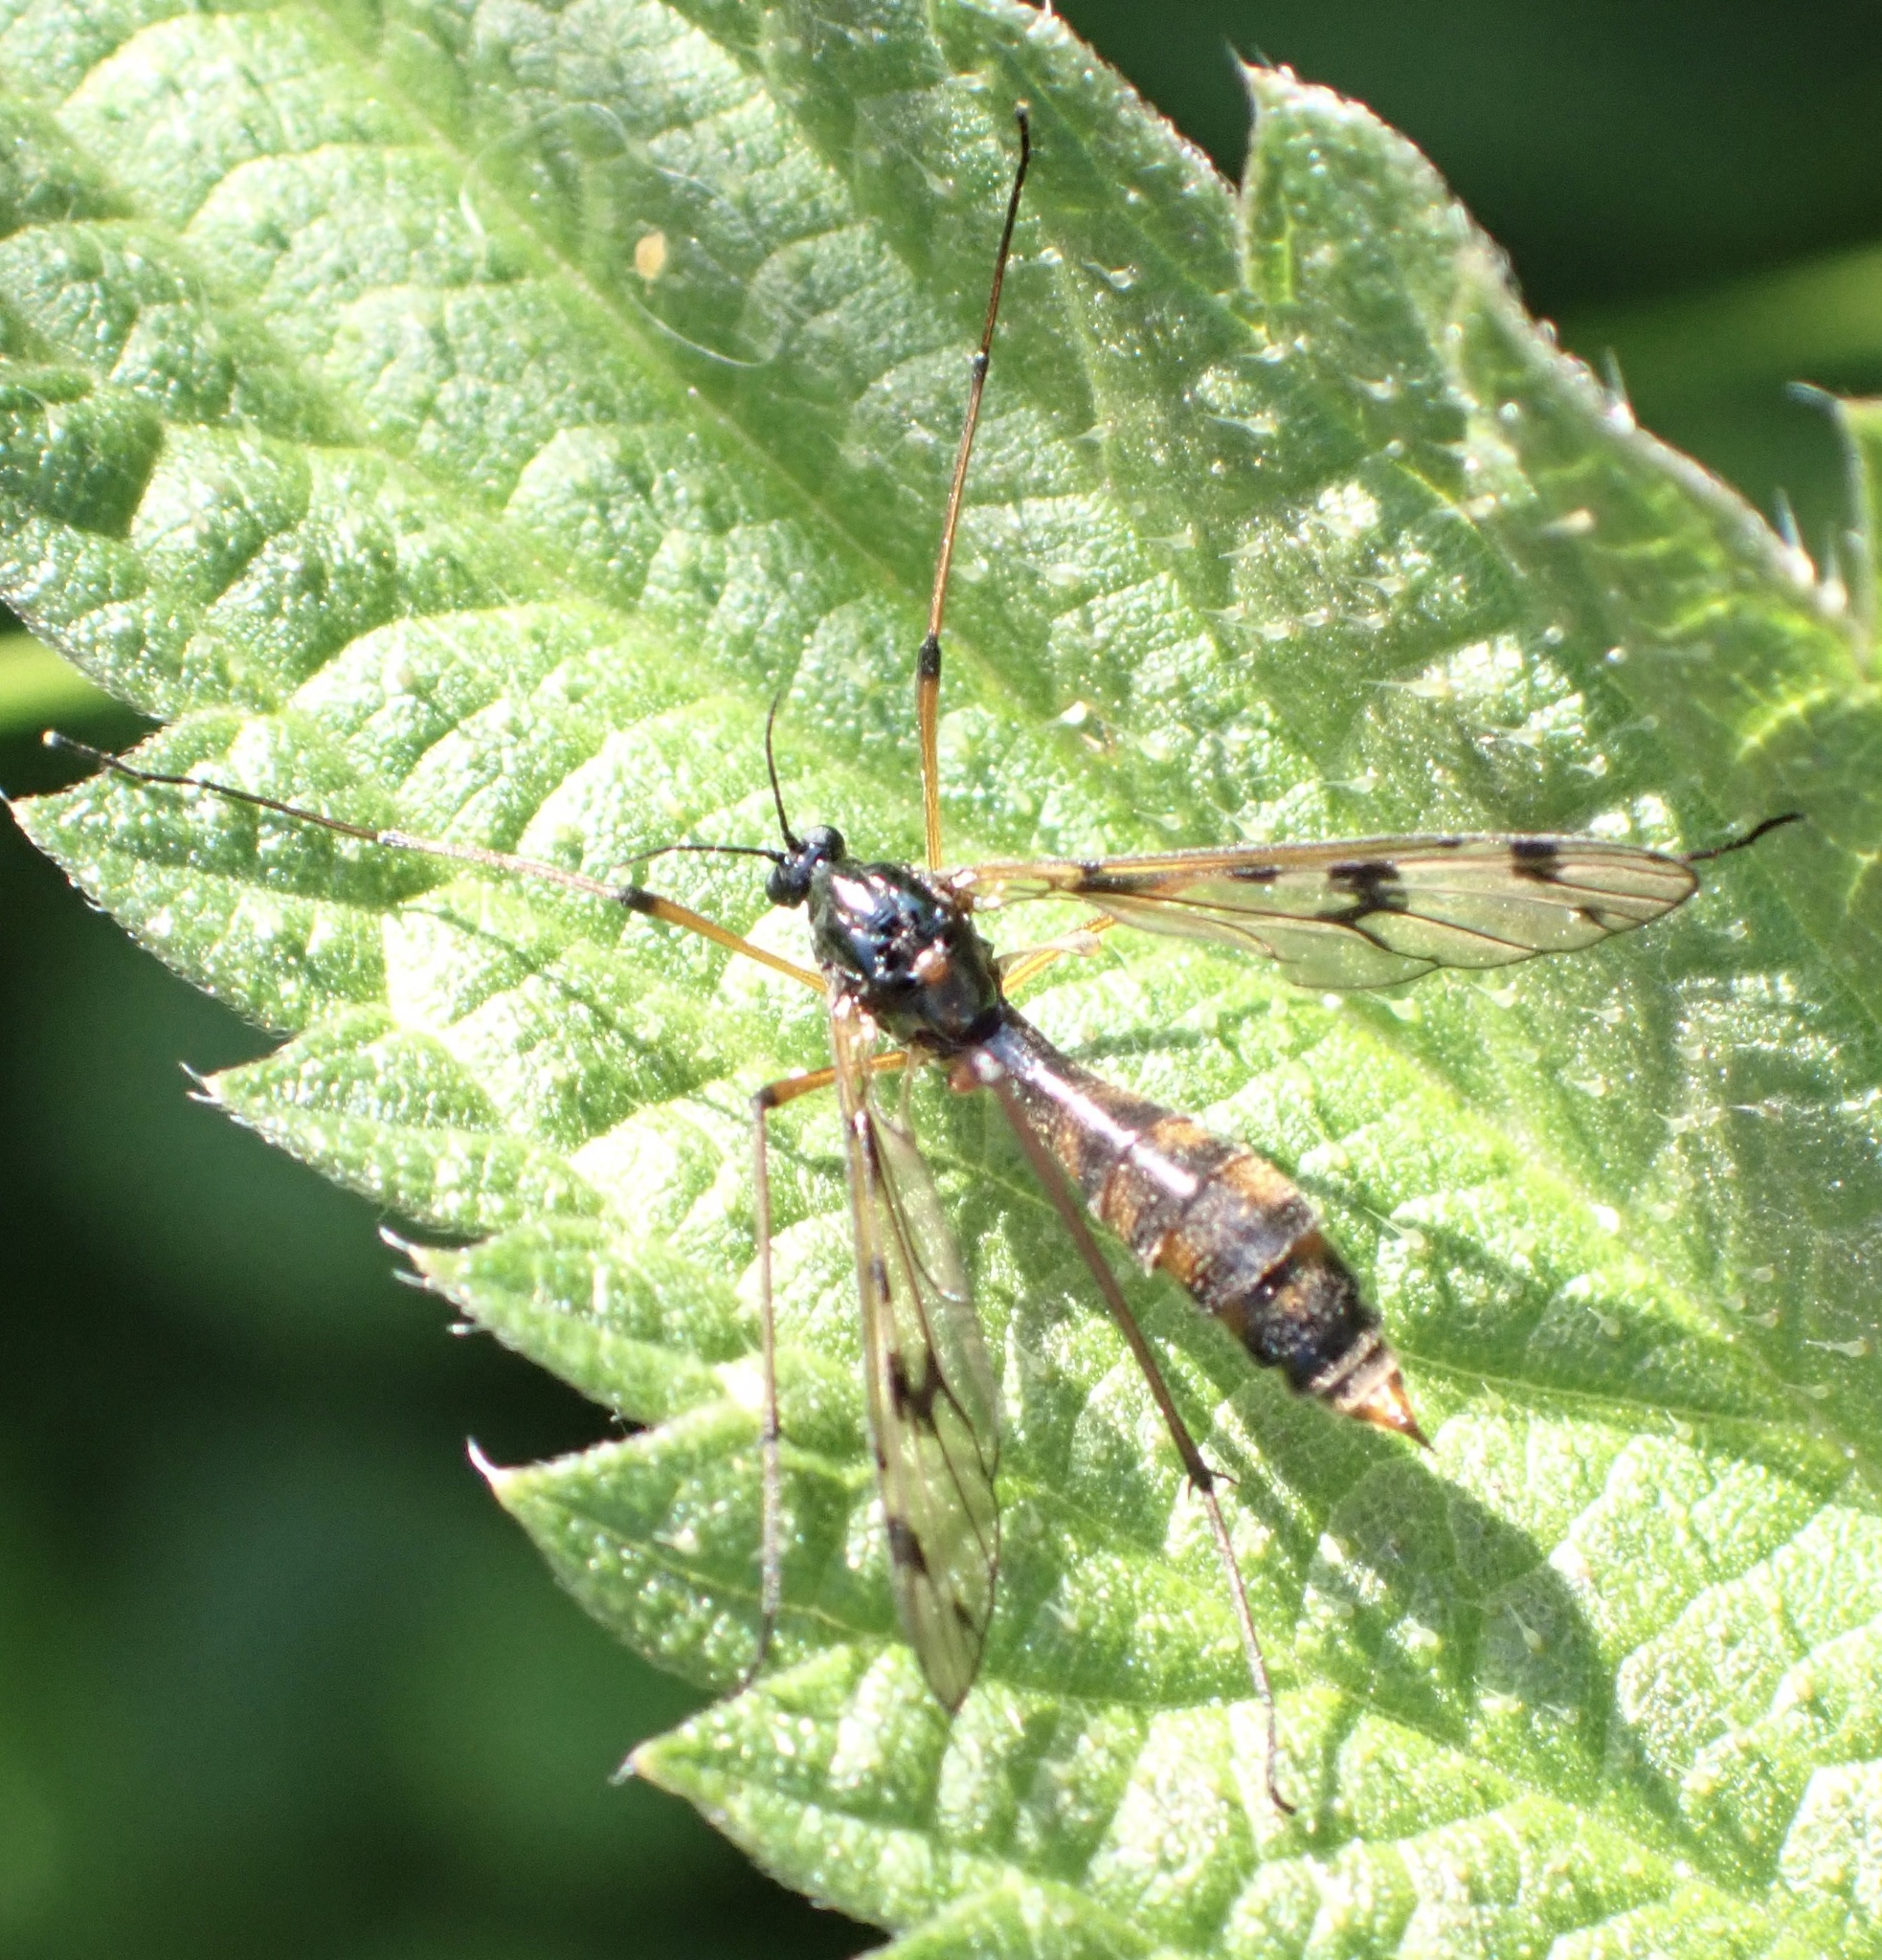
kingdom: Animalia
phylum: Arthropoda
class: Insecta
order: Diptera
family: Ptychopteridae
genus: Ptychoptera
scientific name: Ptychoptera contaminata
